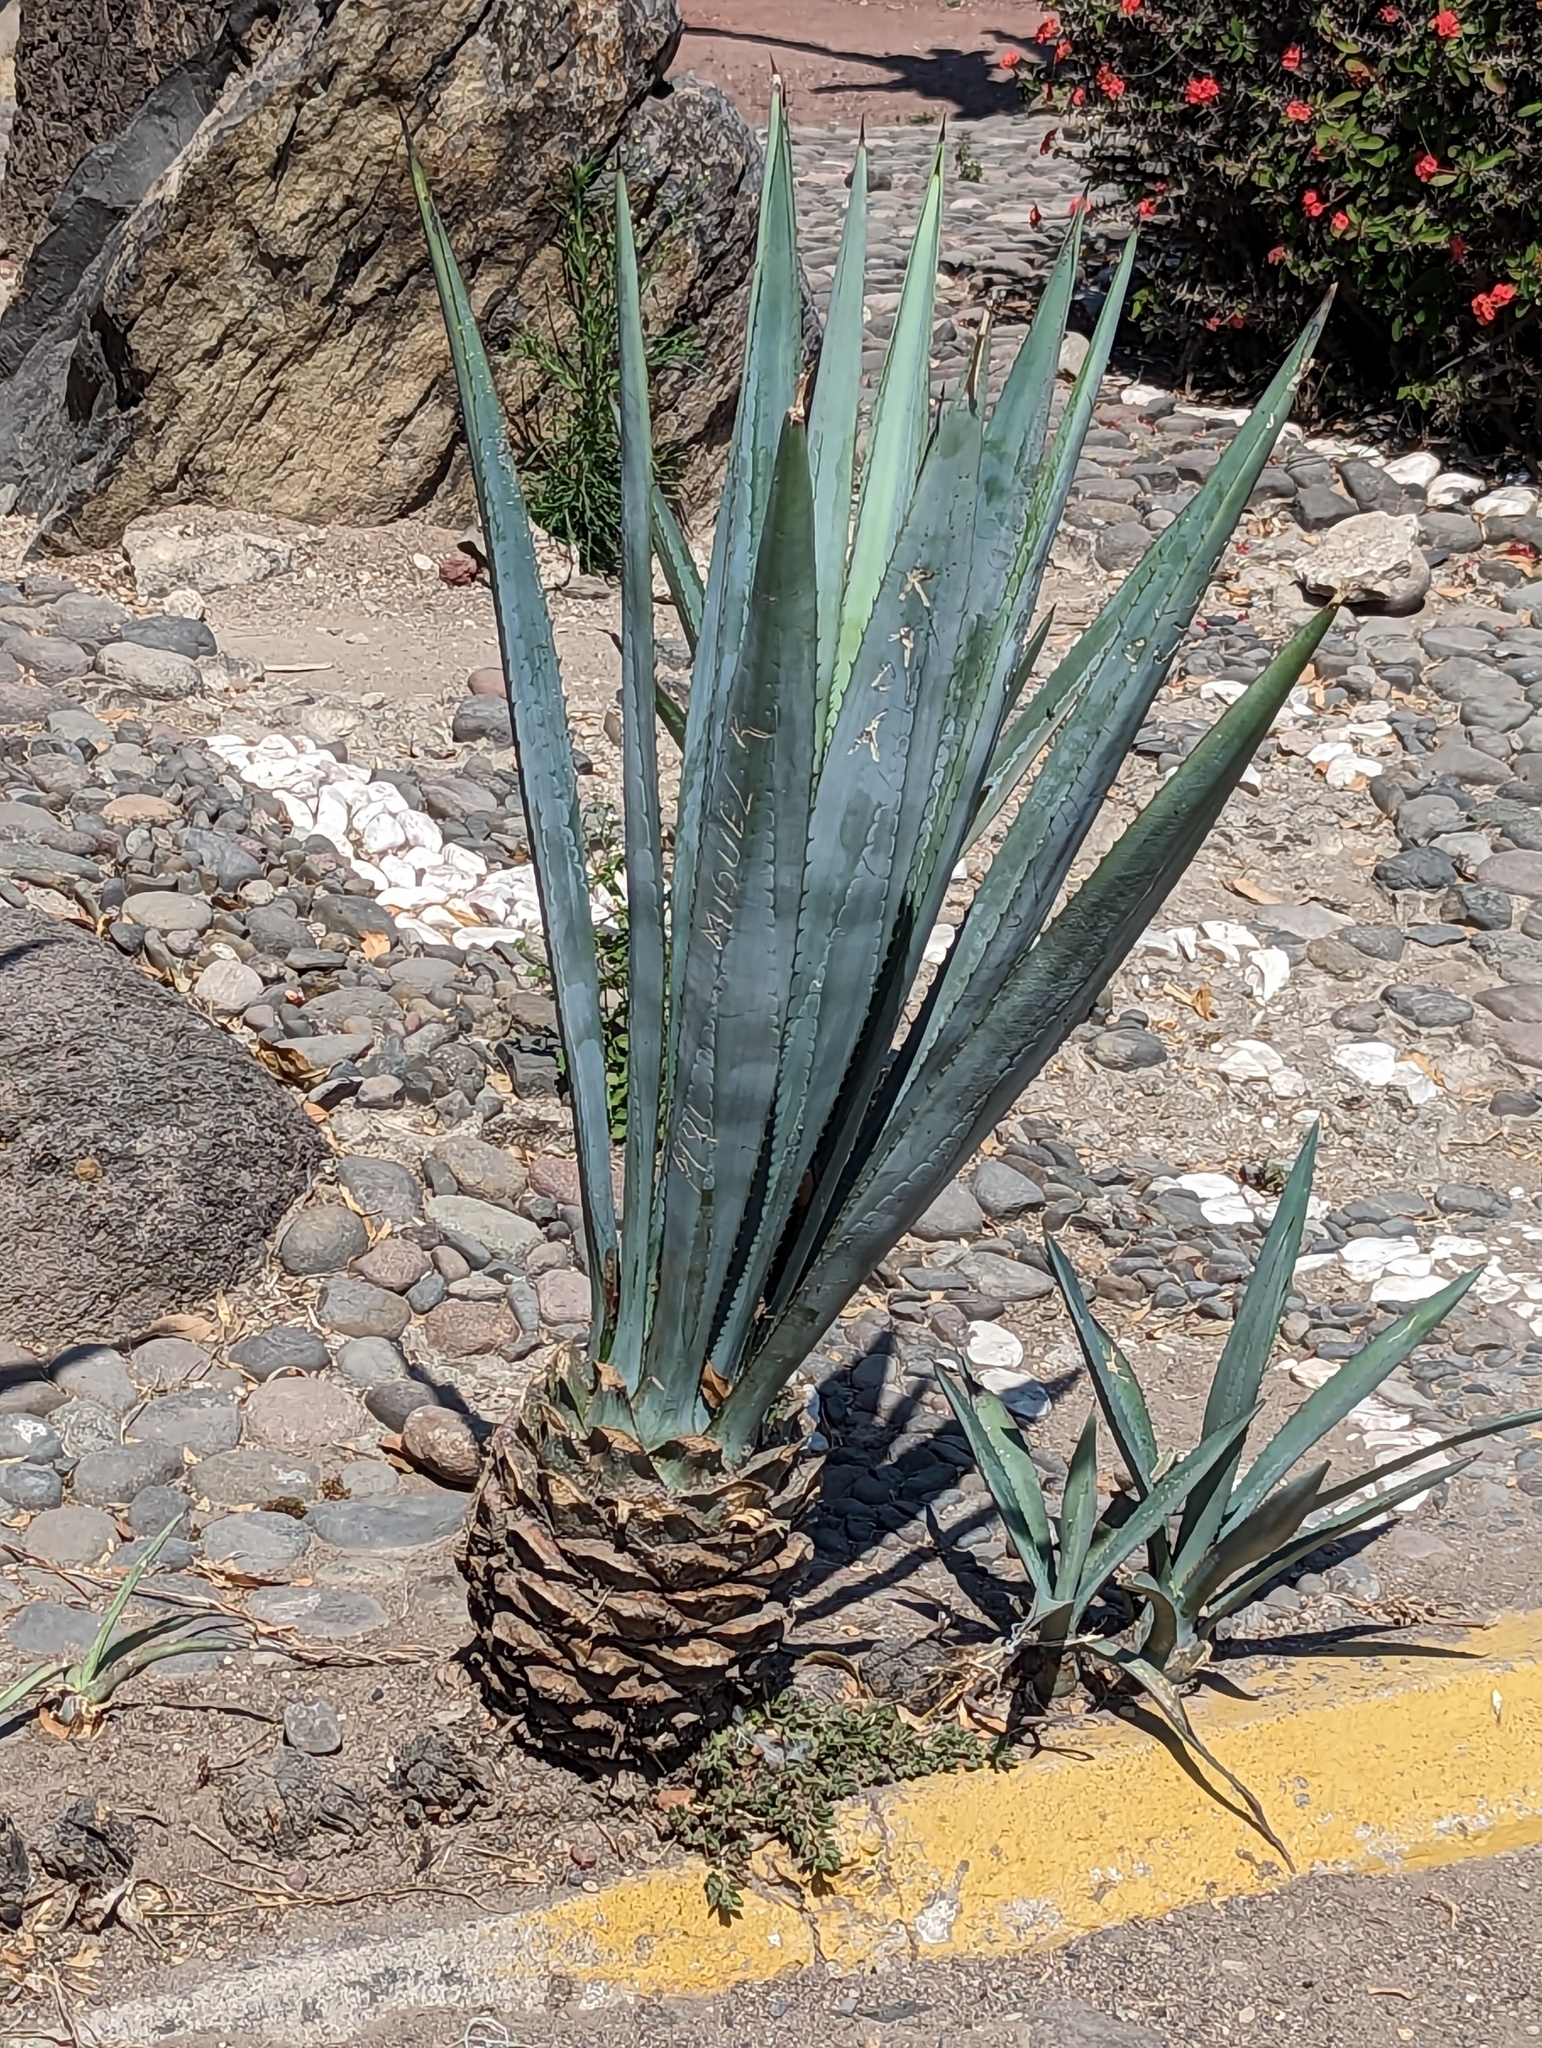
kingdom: Plantae
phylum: Tracheophyta
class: Liliopsida
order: Asparagales
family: Asparagaceae
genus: Agave
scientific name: Agave tequilana
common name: Tequila agave
